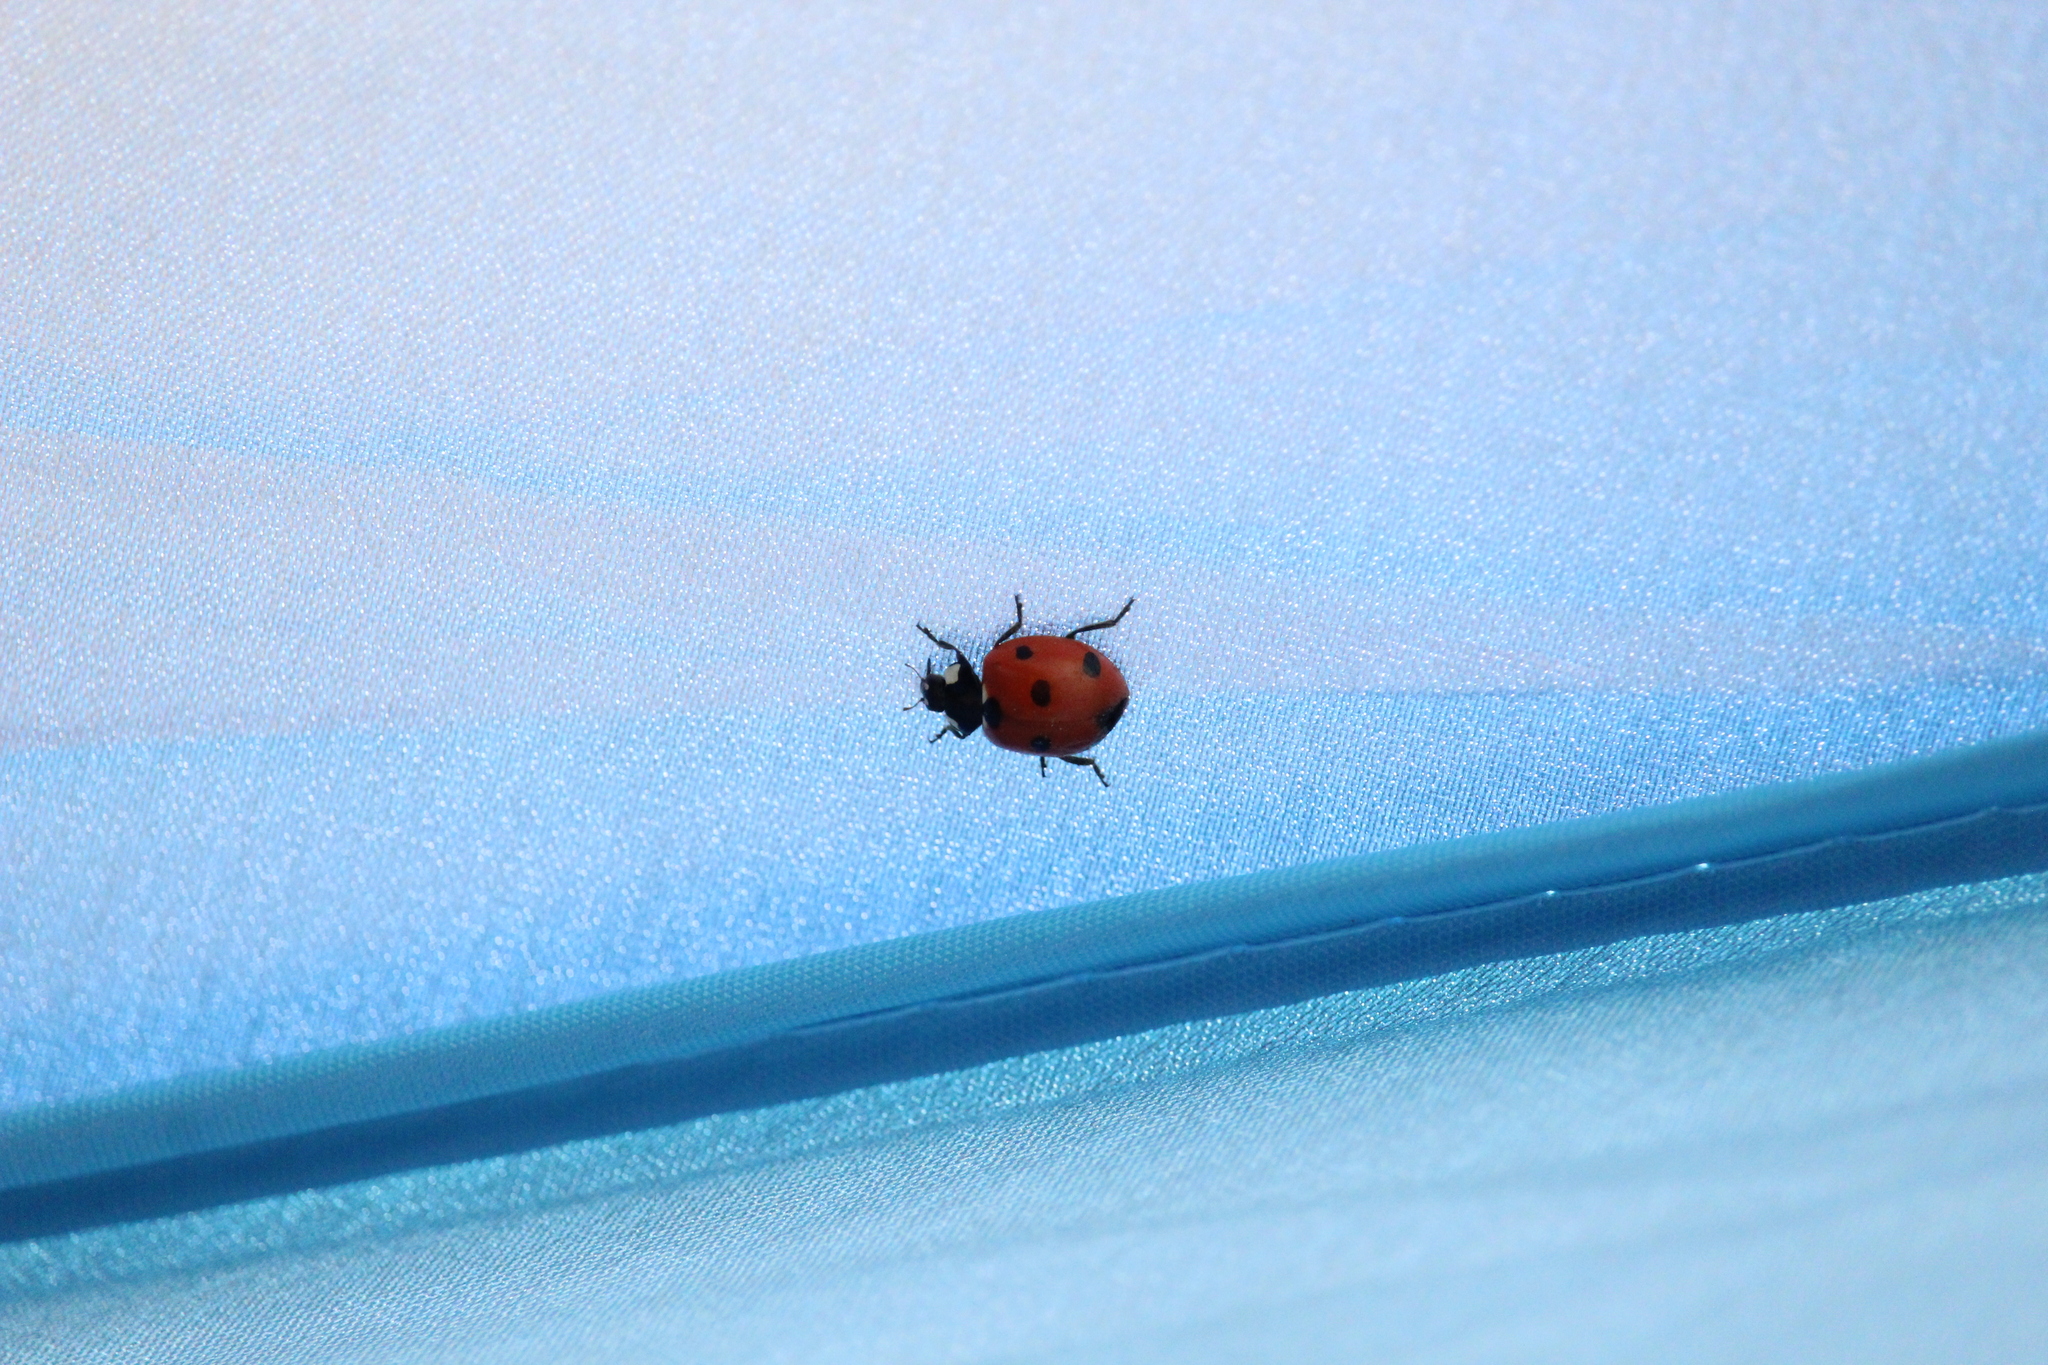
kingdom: Animalia
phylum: Arthropoda
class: Insecta
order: Coleoptera
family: Coccinellidae
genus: Coccinella
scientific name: Coccinella septempunctata
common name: Sevenspotted lady beetle
